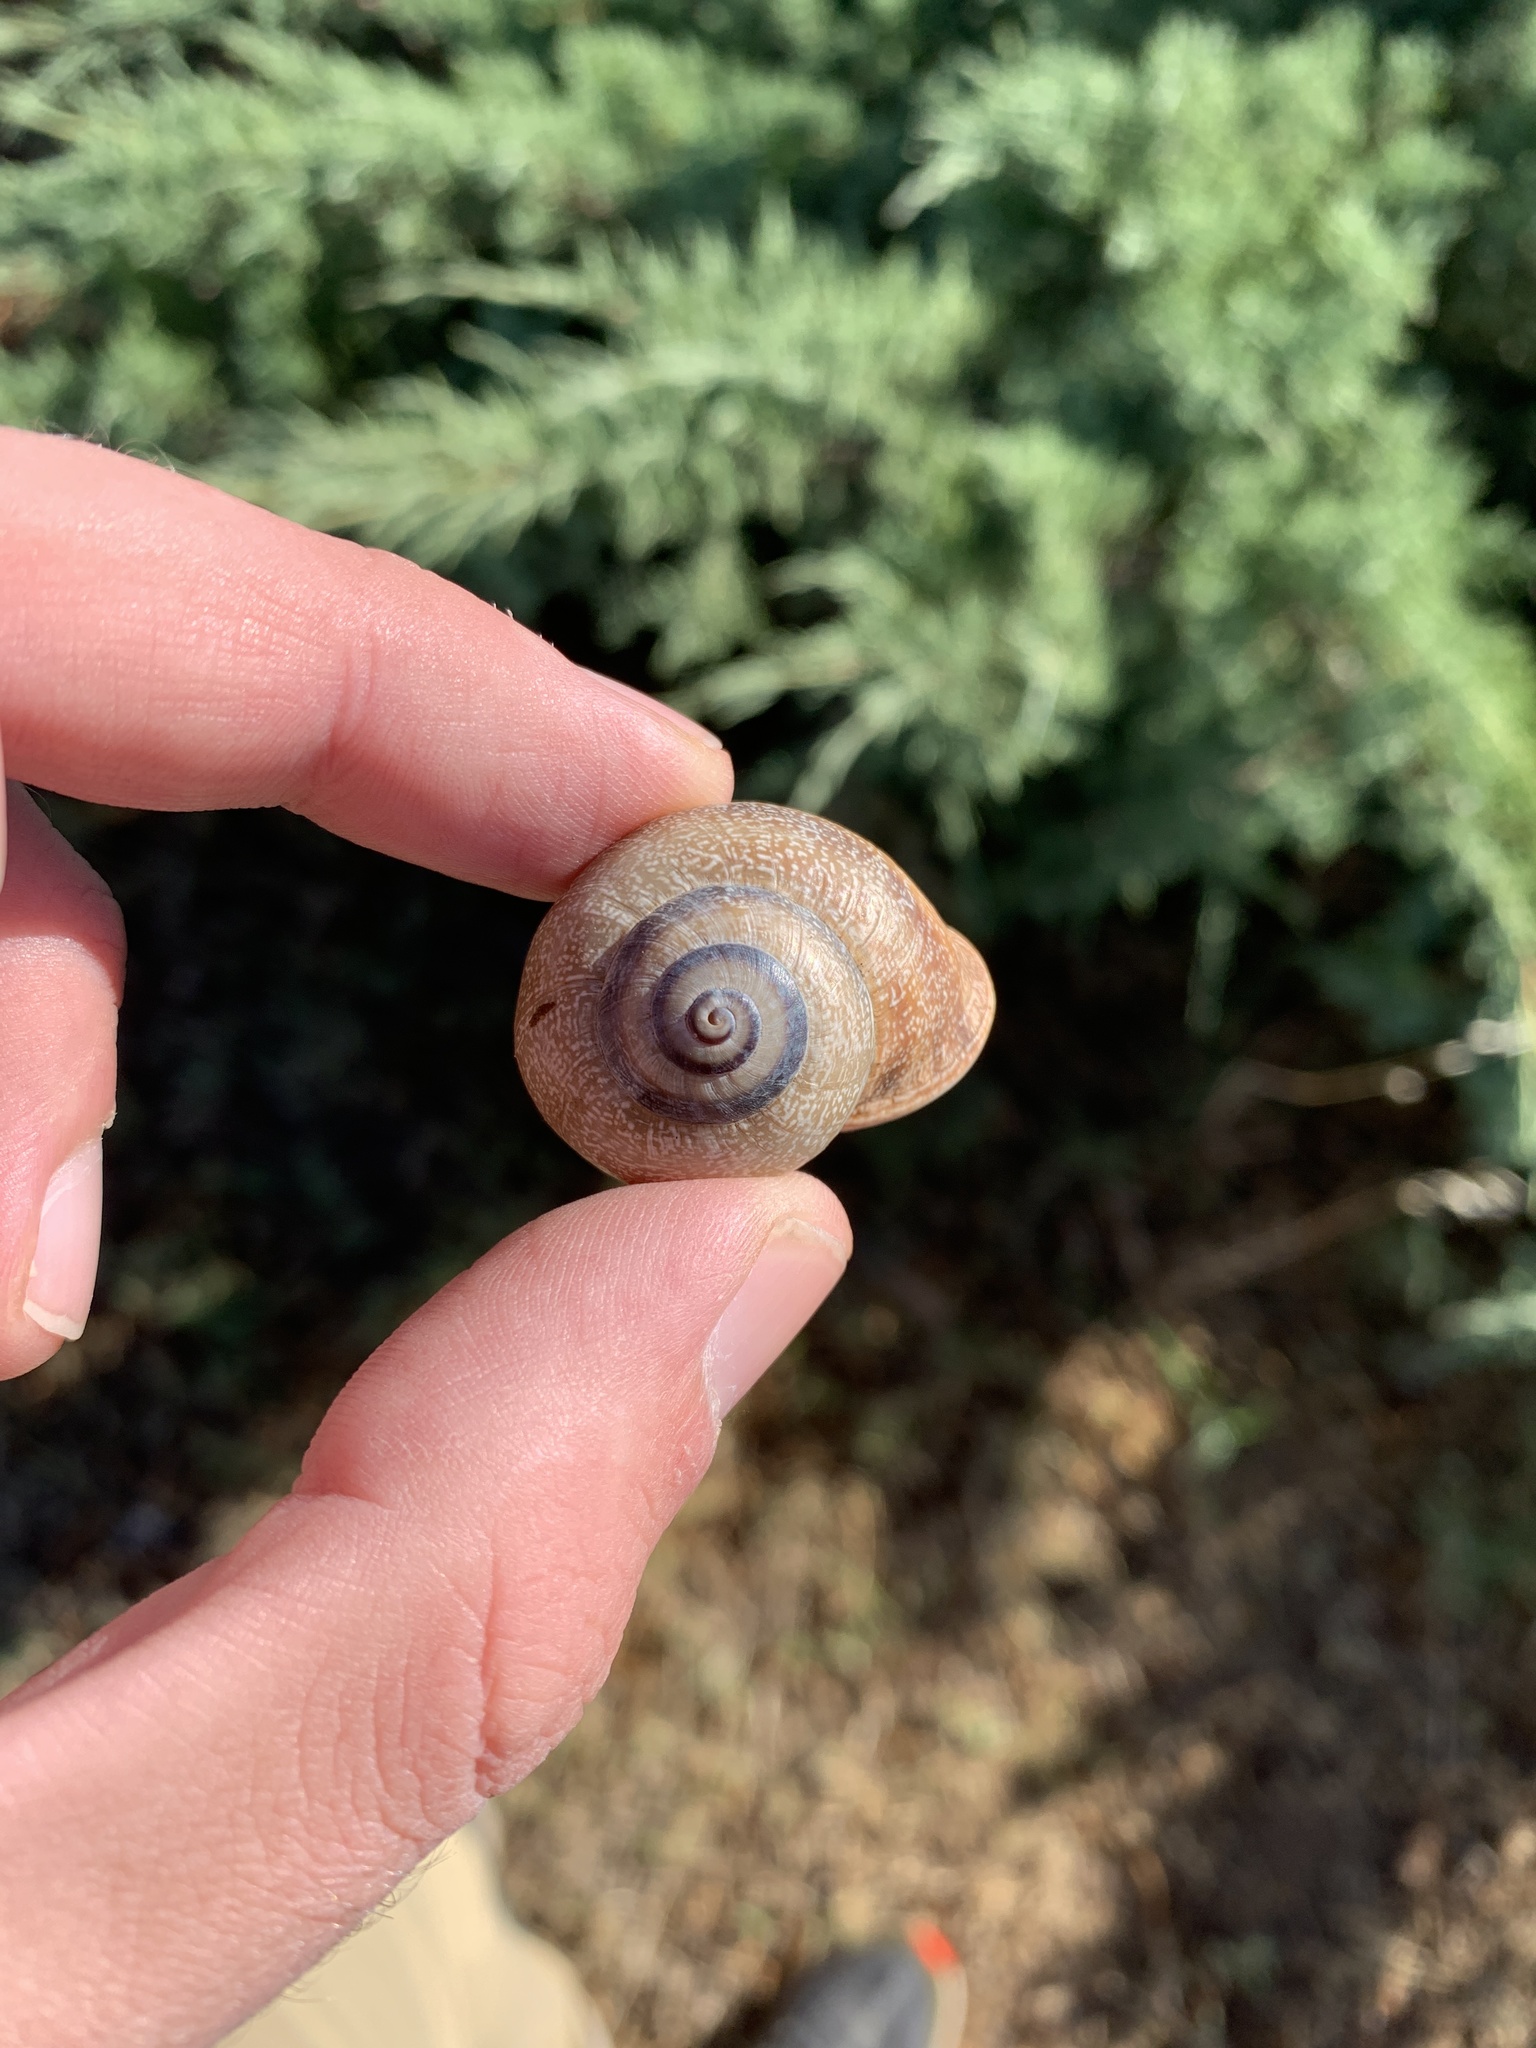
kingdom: Animalia
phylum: Mollusca
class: Gastropoda
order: Stylommatophora
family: Helicidae
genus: Otala
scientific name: Otala punctata
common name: Milk snail
